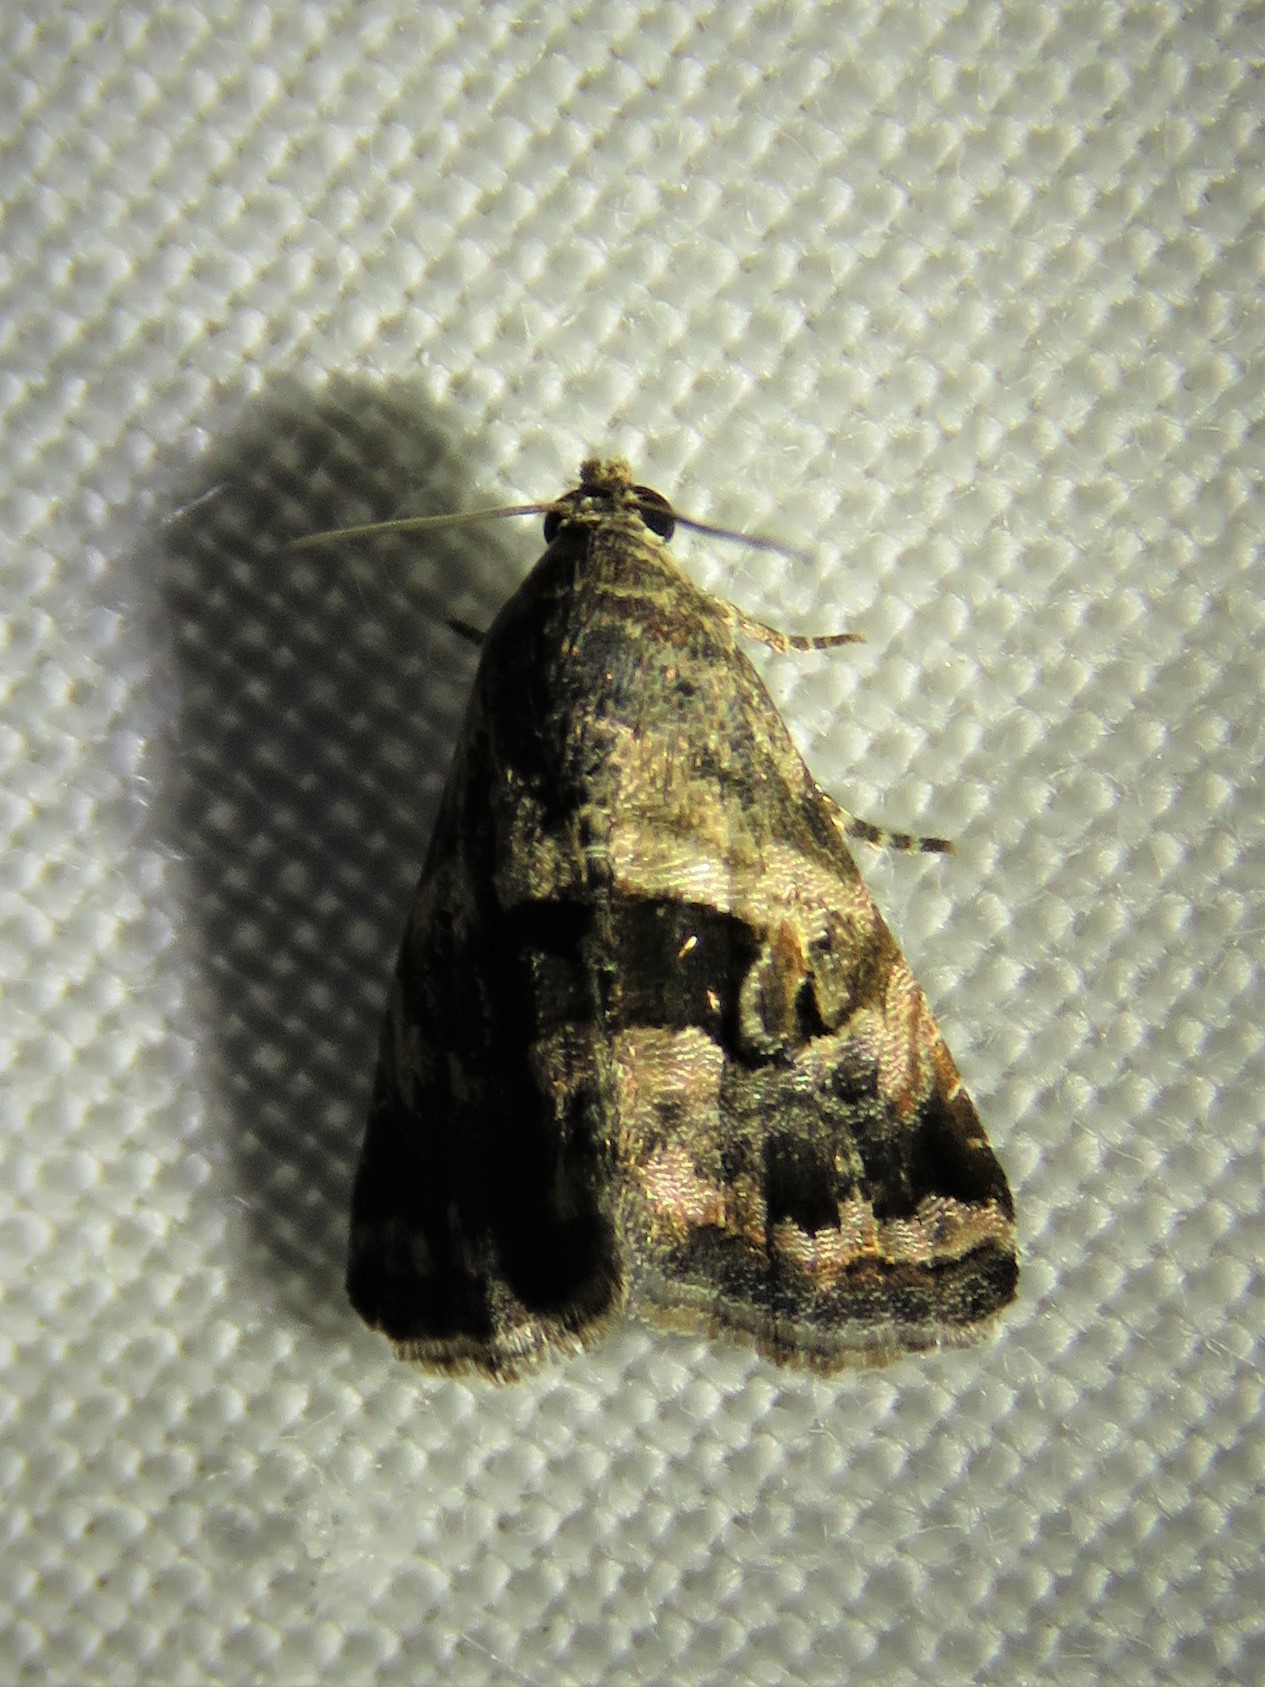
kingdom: Animalia
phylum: Arthropoda
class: Insecta
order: Lepidoptera
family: Noctuidae
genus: Tripudia
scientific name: Tripudia quadrifera
